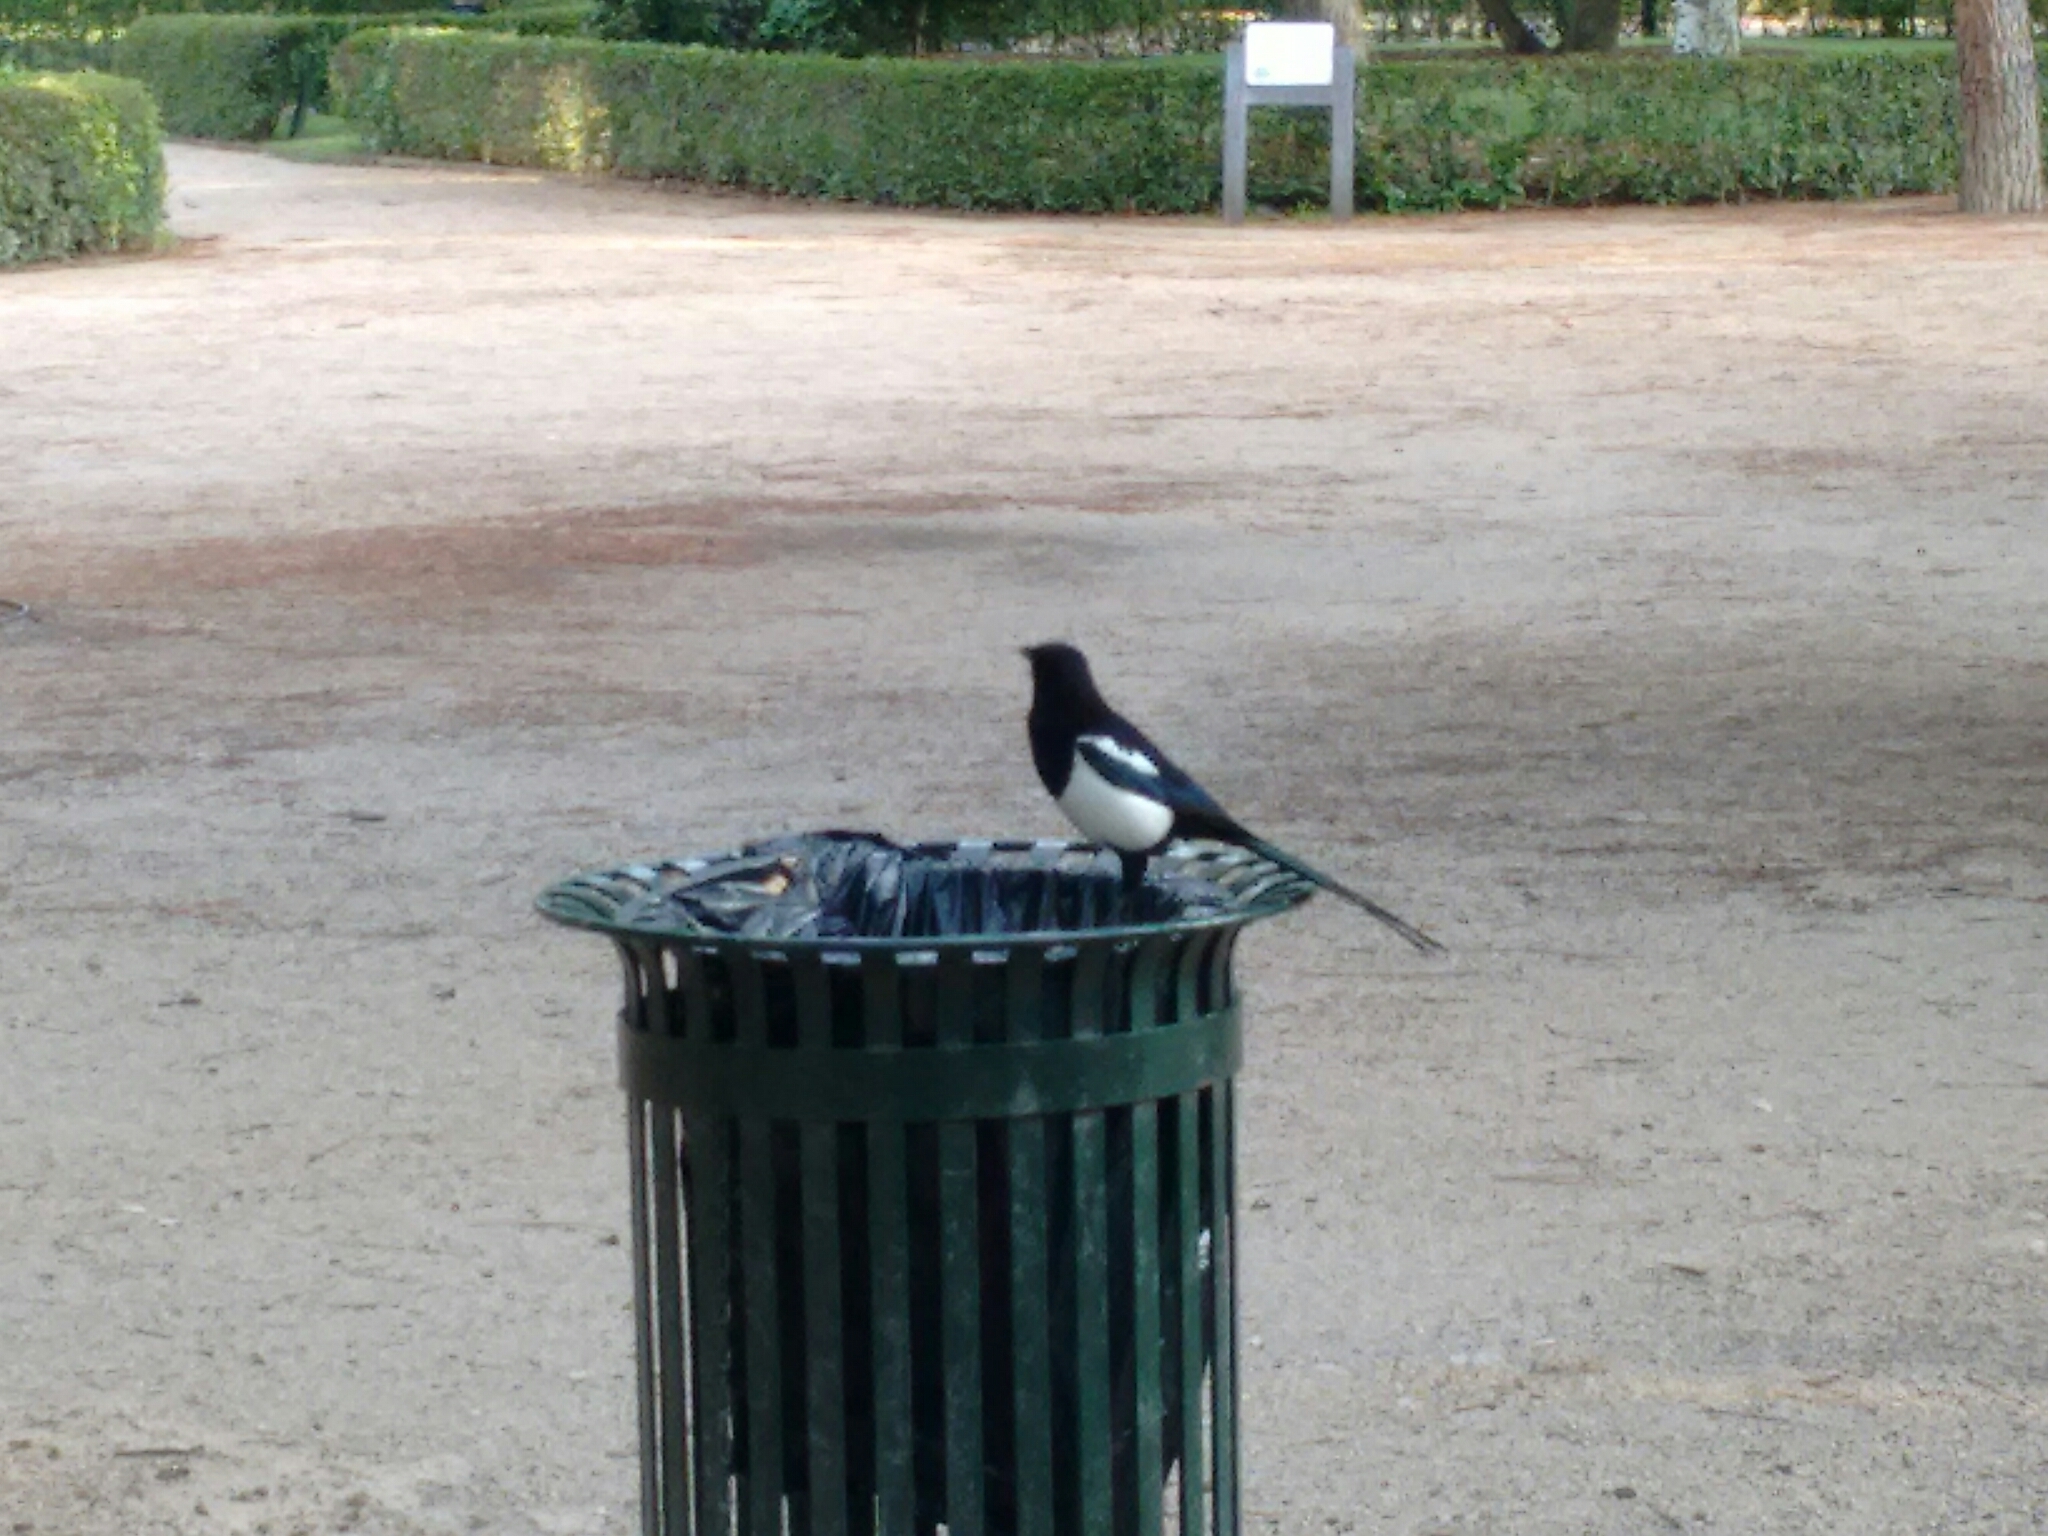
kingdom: Animalia
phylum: Chordata
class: Aves
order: Passeriformes
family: Corvidae
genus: Pica
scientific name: Pica pica
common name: Eurasian magpie
